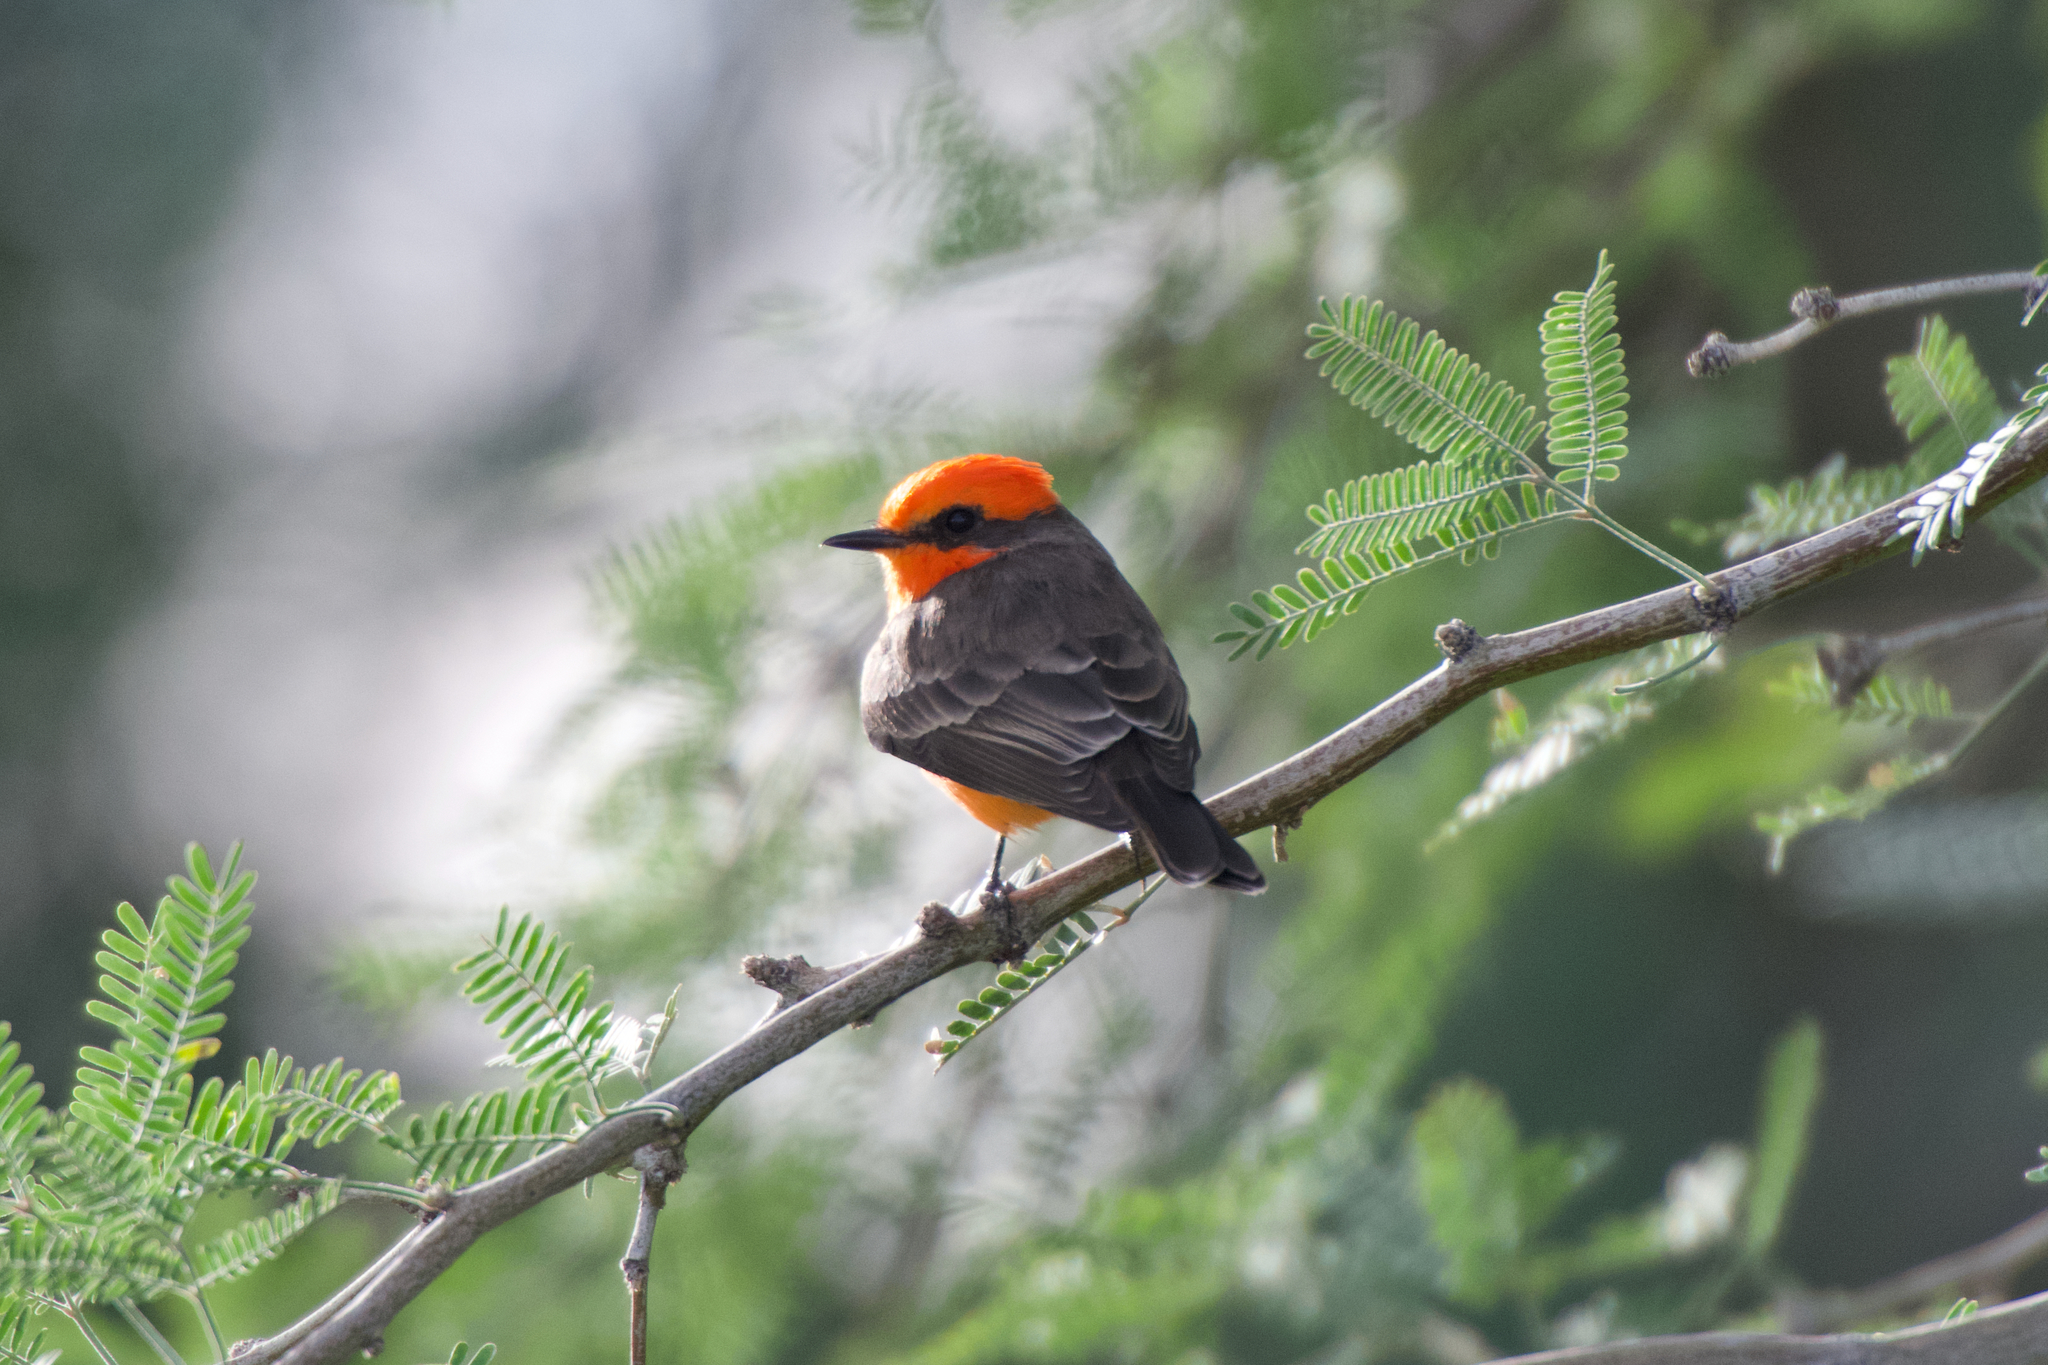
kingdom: Animalia
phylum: Chordata
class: Aves
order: Passeriformes
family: Tyrannidae
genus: Pyrocephalus
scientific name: Pyrocephalus rubinus
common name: Vermilion flycatcher
